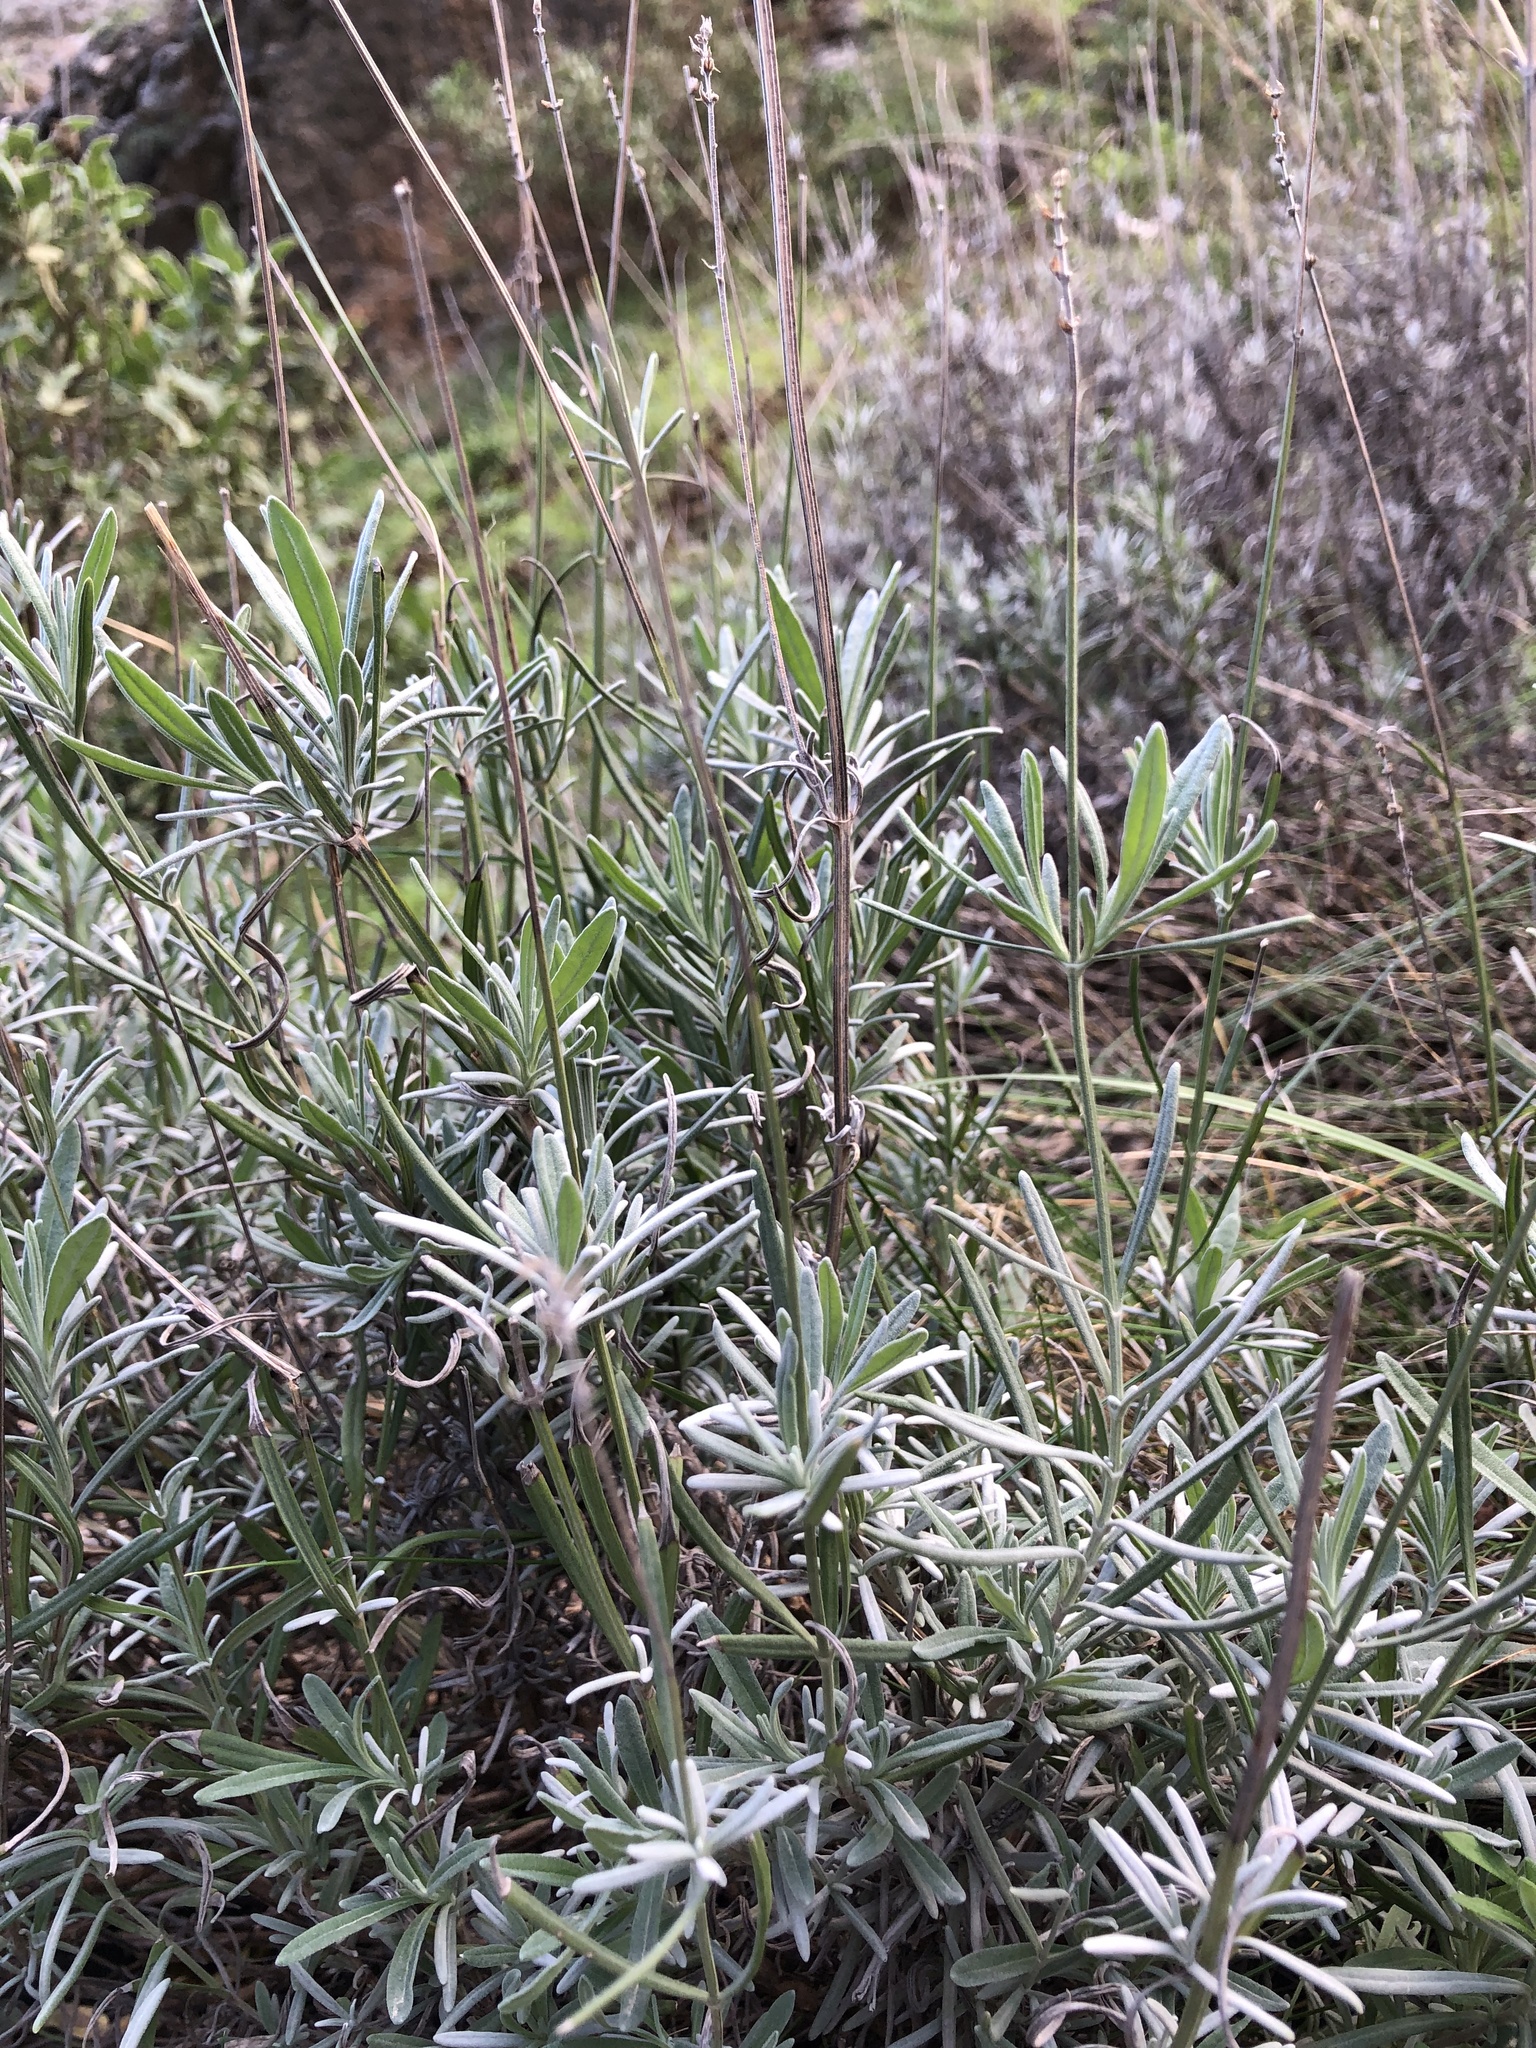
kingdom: Plantae
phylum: Tracheophyta
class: Magnoliopsida
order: Lamiales
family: Lamiaceae
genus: Lavandula
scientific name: Lavandula angustifolia
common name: Garden lavender
